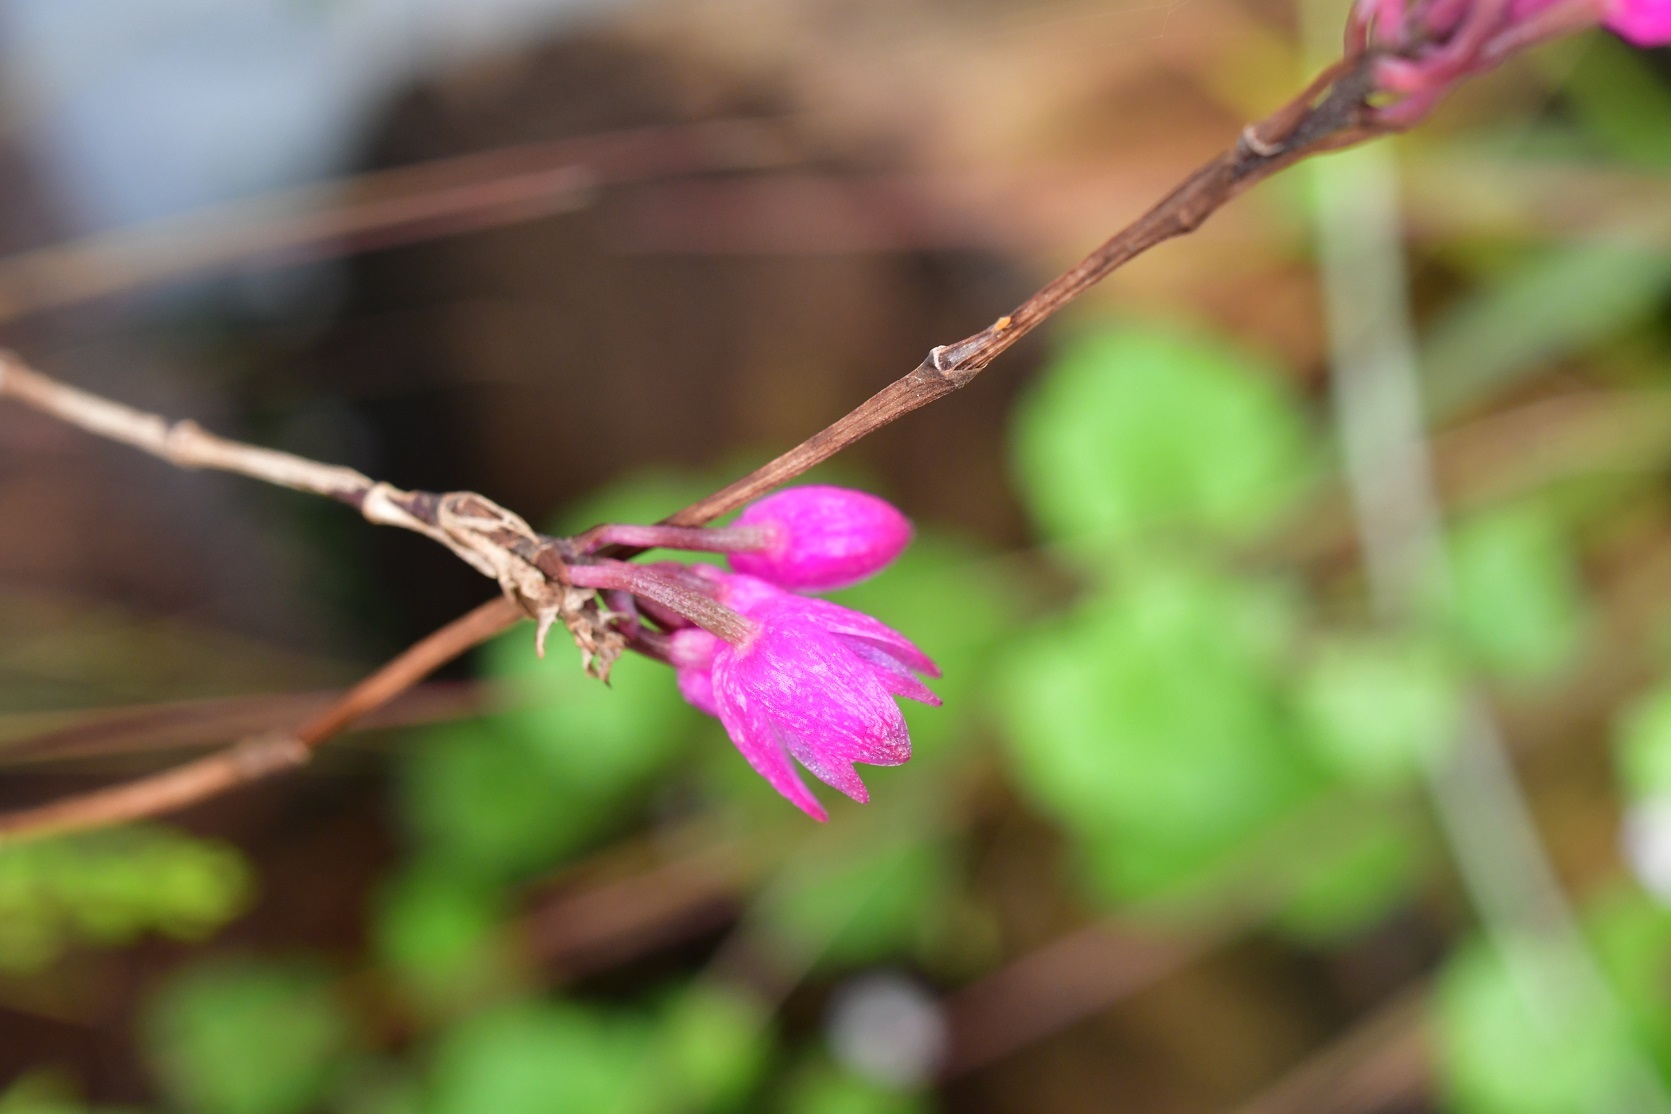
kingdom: Plantae
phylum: Tracheophyta
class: Liliopsida
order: Asparagales
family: Orchidaceae
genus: Domingoa
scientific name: Domingoa purpurea
